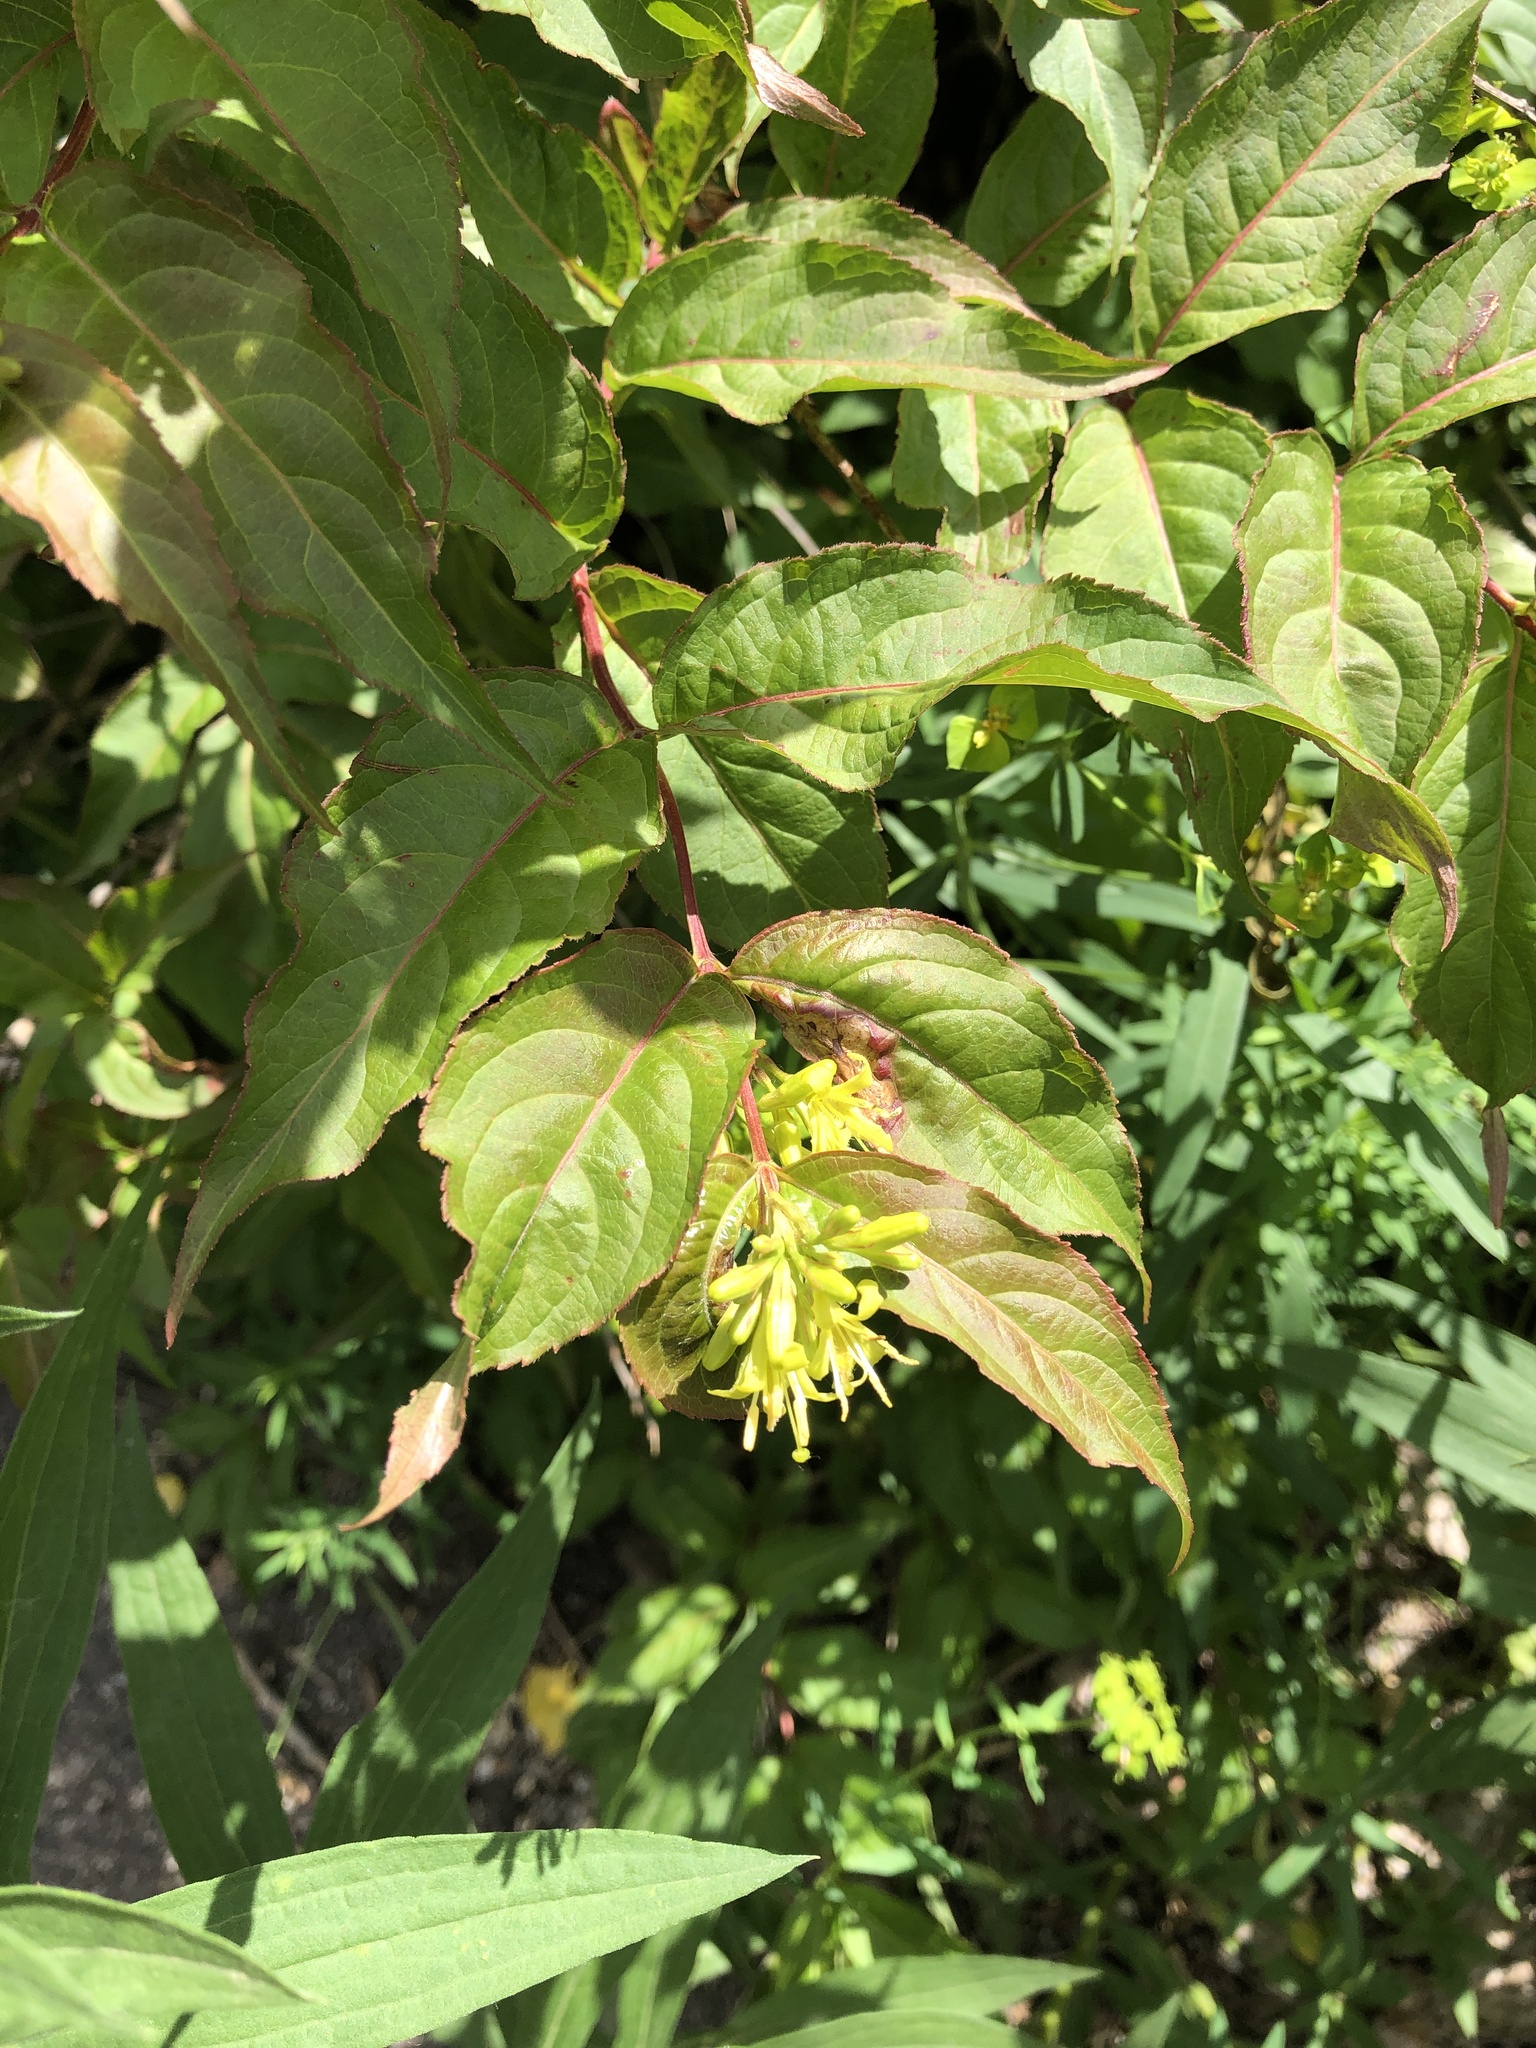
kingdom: Plantae
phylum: Tracheophyta
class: Magnoliopsida
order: Dipsacales
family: Caprifoliaceae
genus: Diervilla
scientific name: Diervilla lonicera
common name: Bush-honeysuckle
